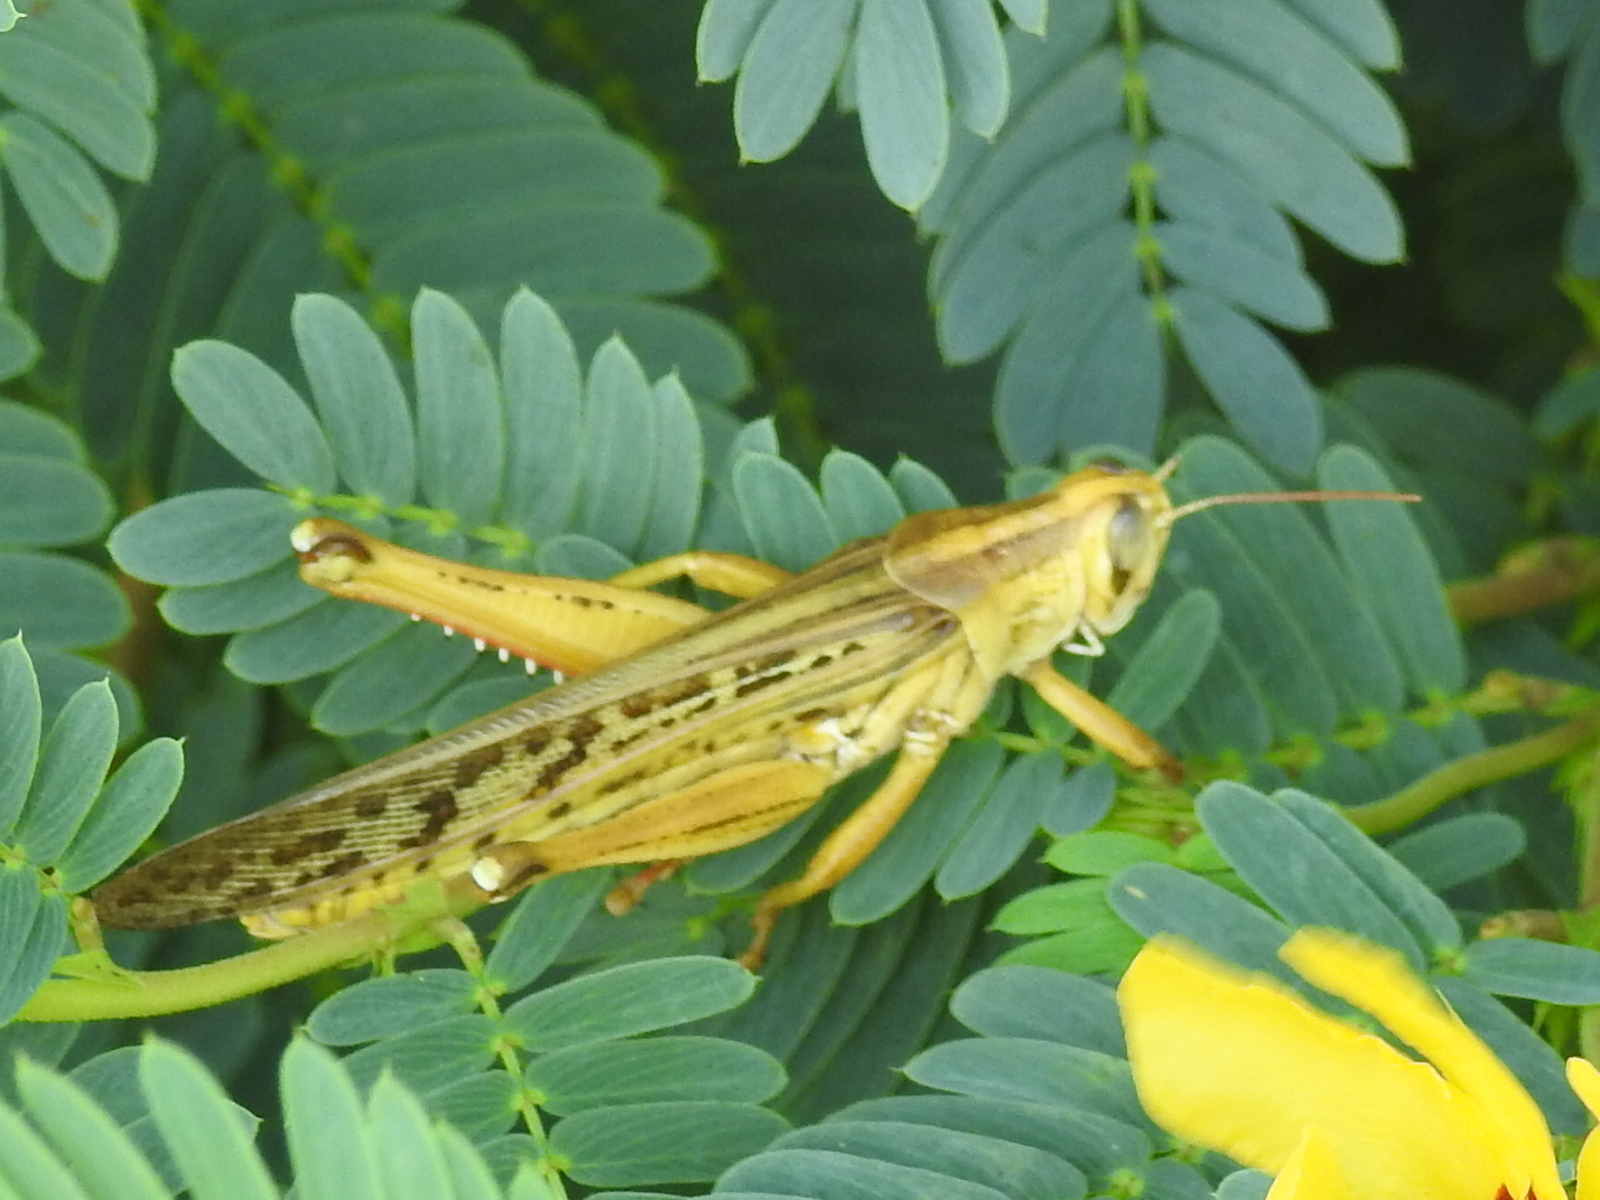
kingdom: Animalia
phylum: Arthropoda
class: Insecta
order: Orthoptera
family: Acrididae
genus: Schistocerca
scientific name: Schistocerca americana
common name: American bird locust
